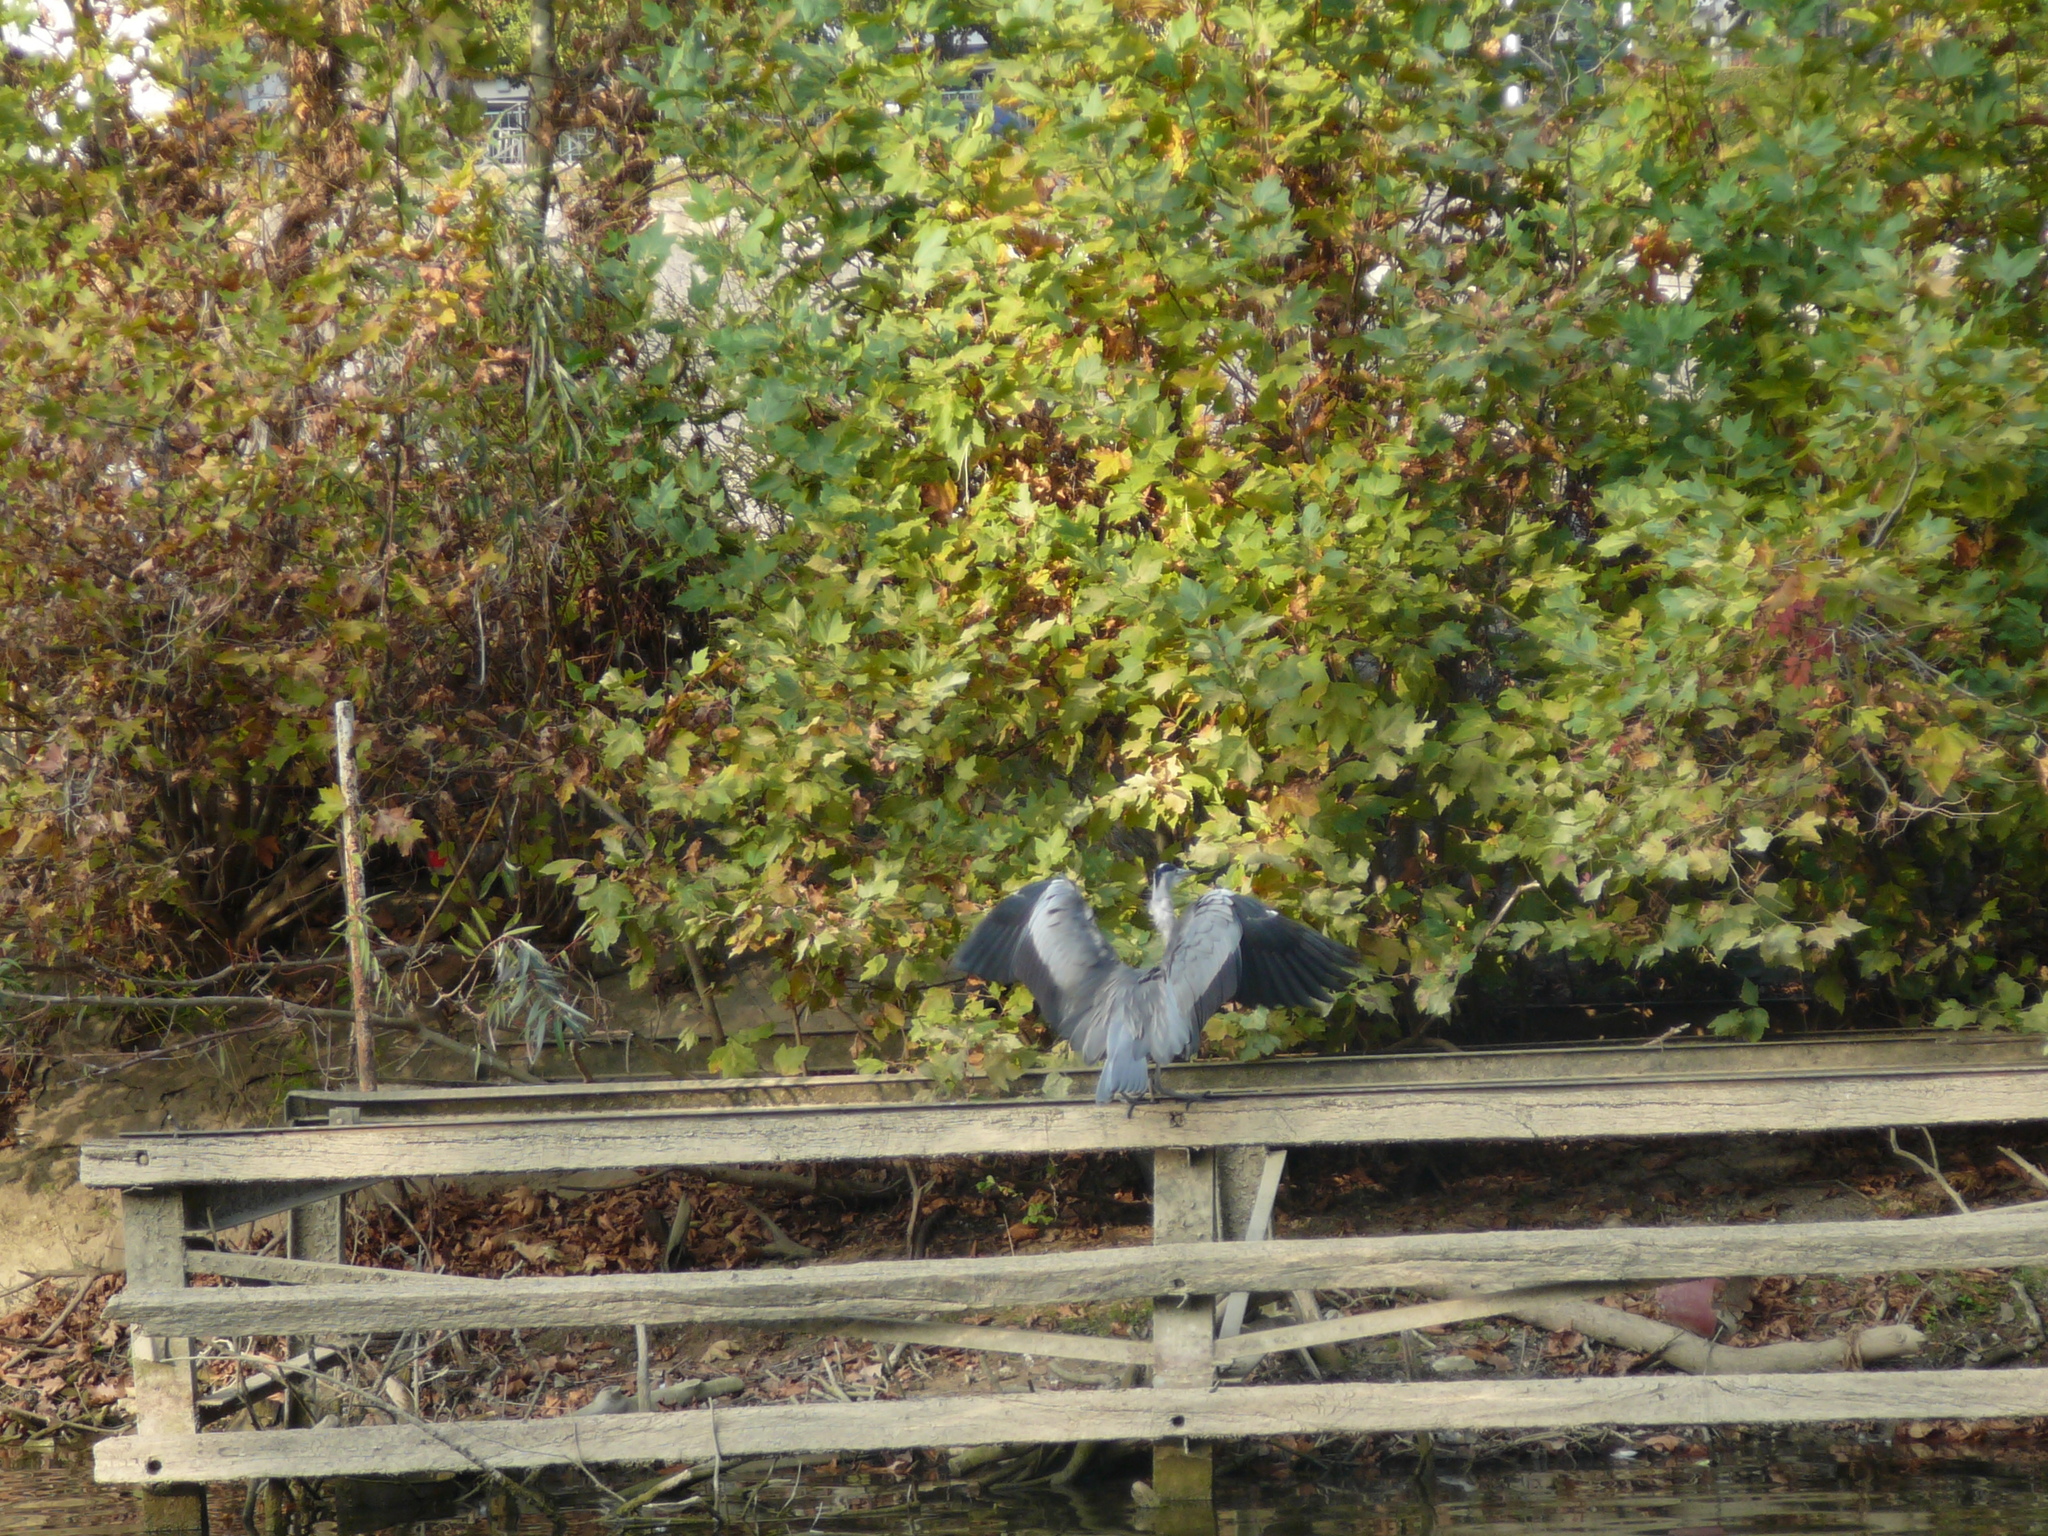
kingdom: Animalia
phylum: Chordata
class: Aves
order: Pelecaniformes
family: Ardeidae
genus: Ardea
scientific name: Ardea cinerea
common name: Grey heron
